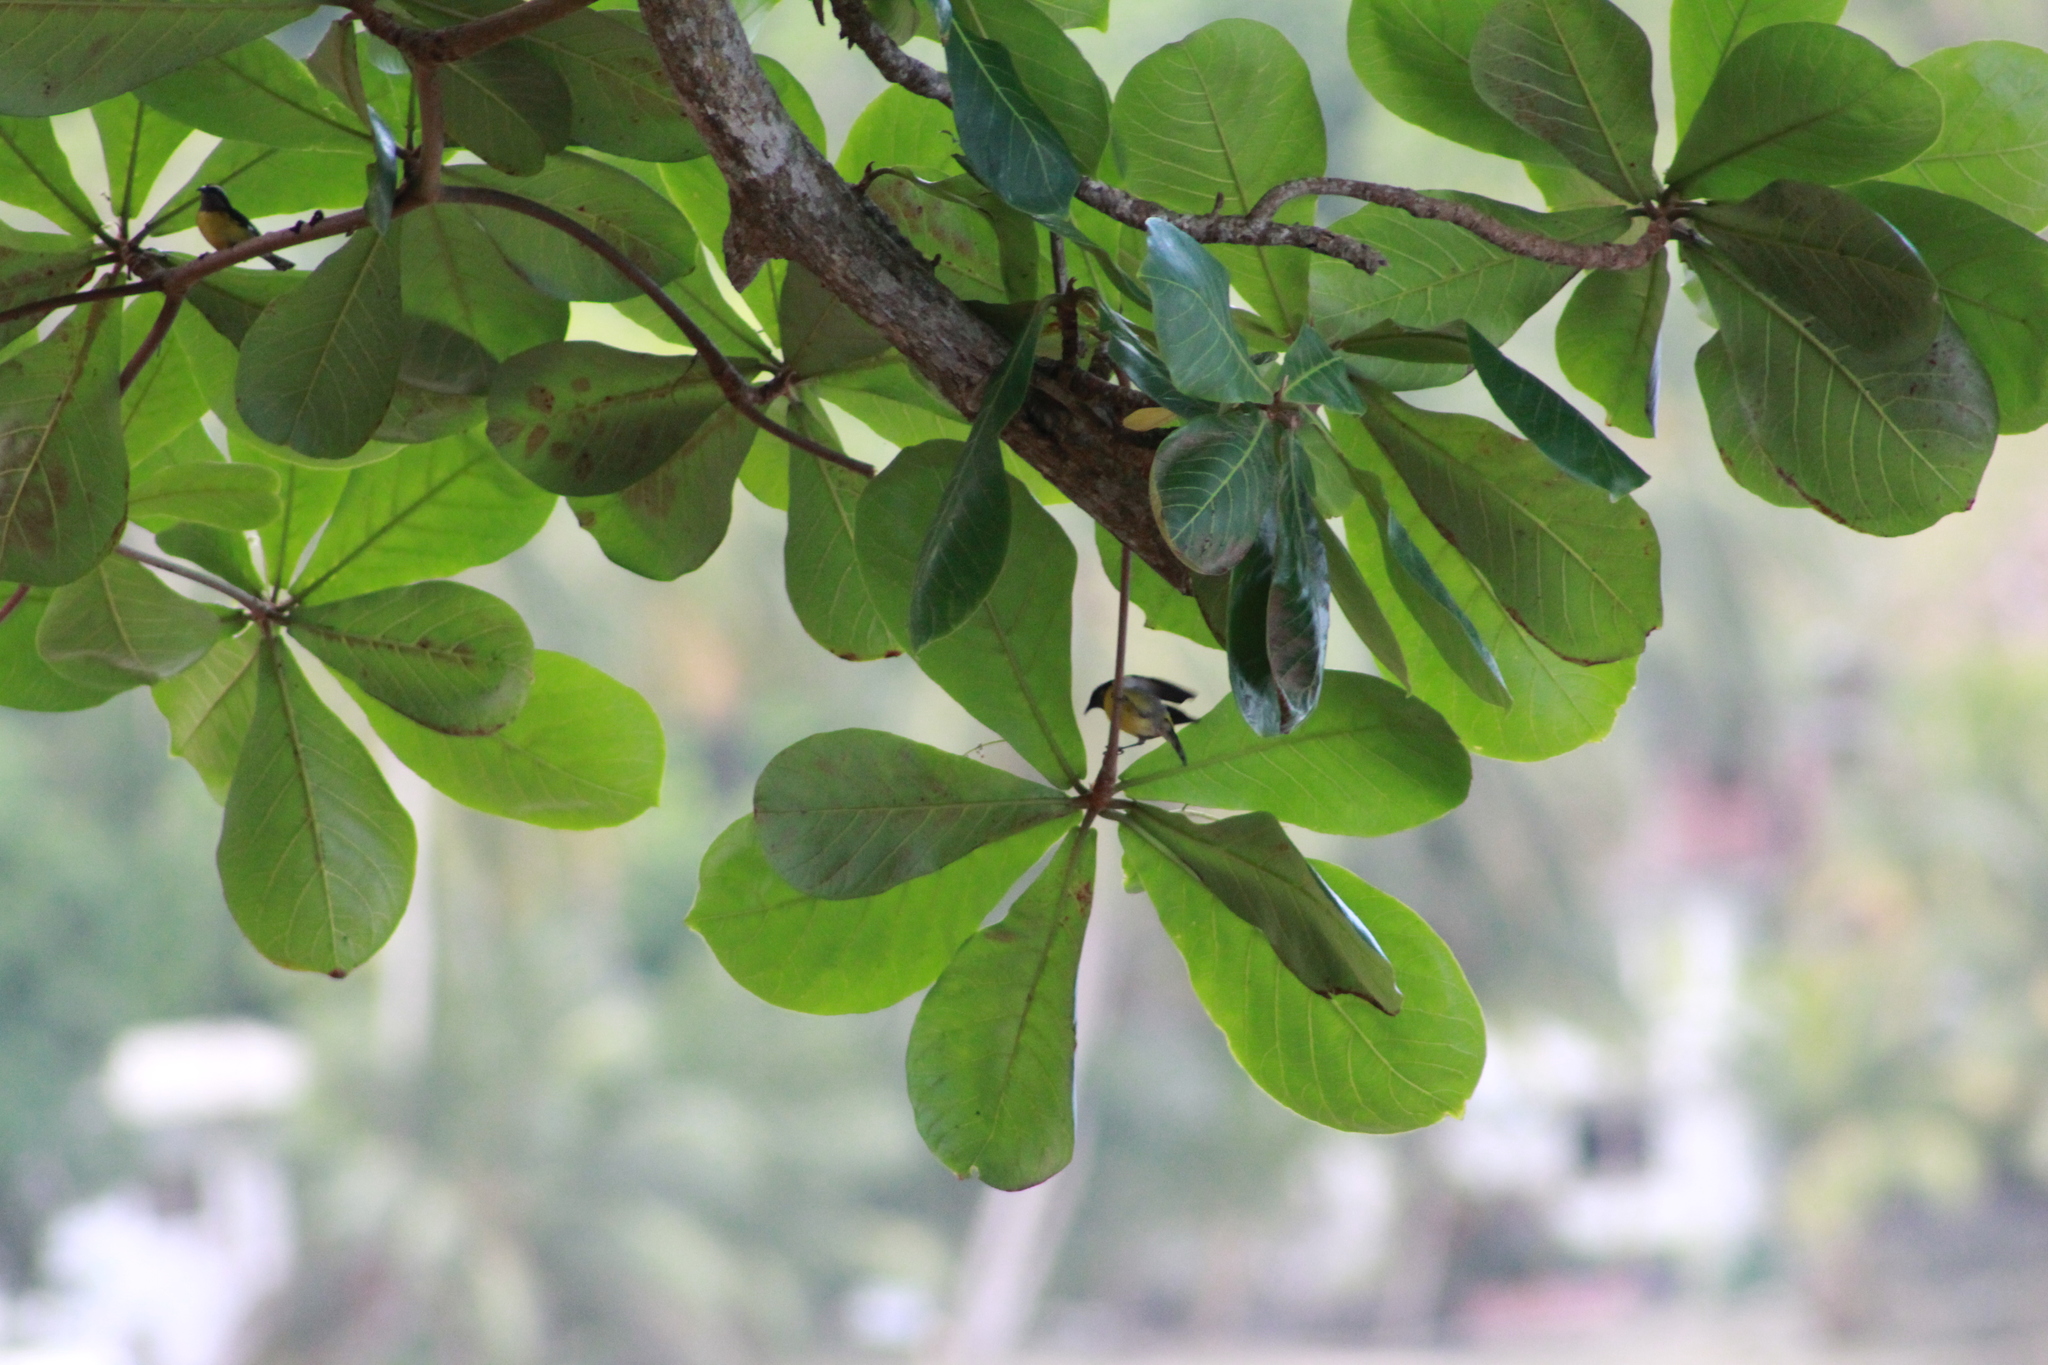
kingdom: Animalia
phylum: Chordata
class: Aves
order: Passeriformes
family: Thraupidae
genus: Coereba
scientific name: Coereba flaveola
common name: Bananaquit
